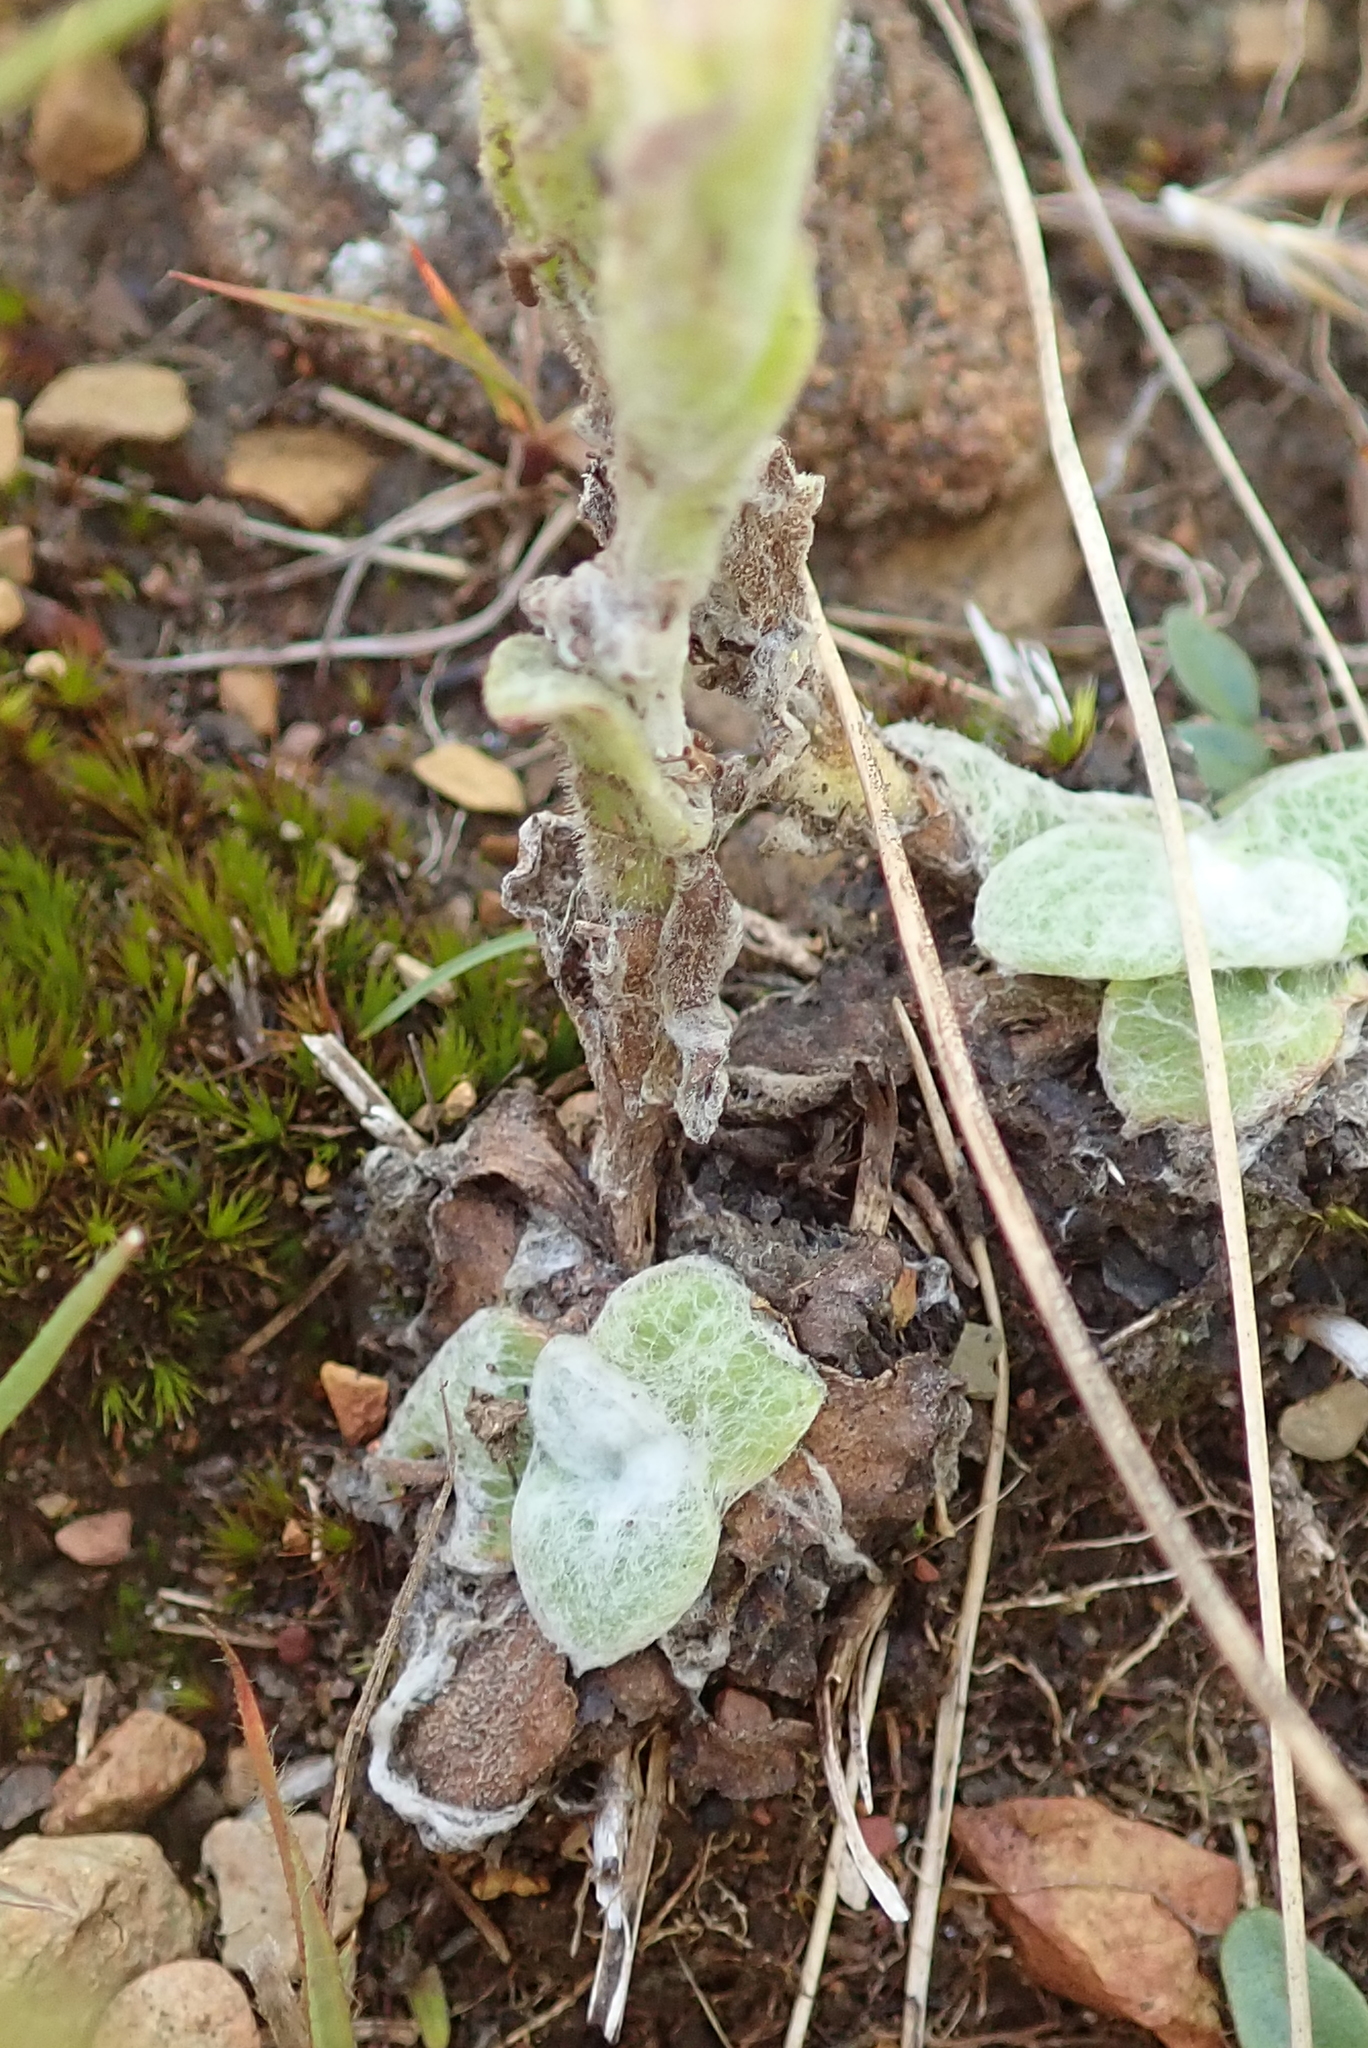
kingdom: Plantae
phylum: Tracheophyta
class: Magnoliopsida
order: Asterales
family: Asteraceae
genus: Helichrysum
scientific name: Helichrysum adenocarpum
